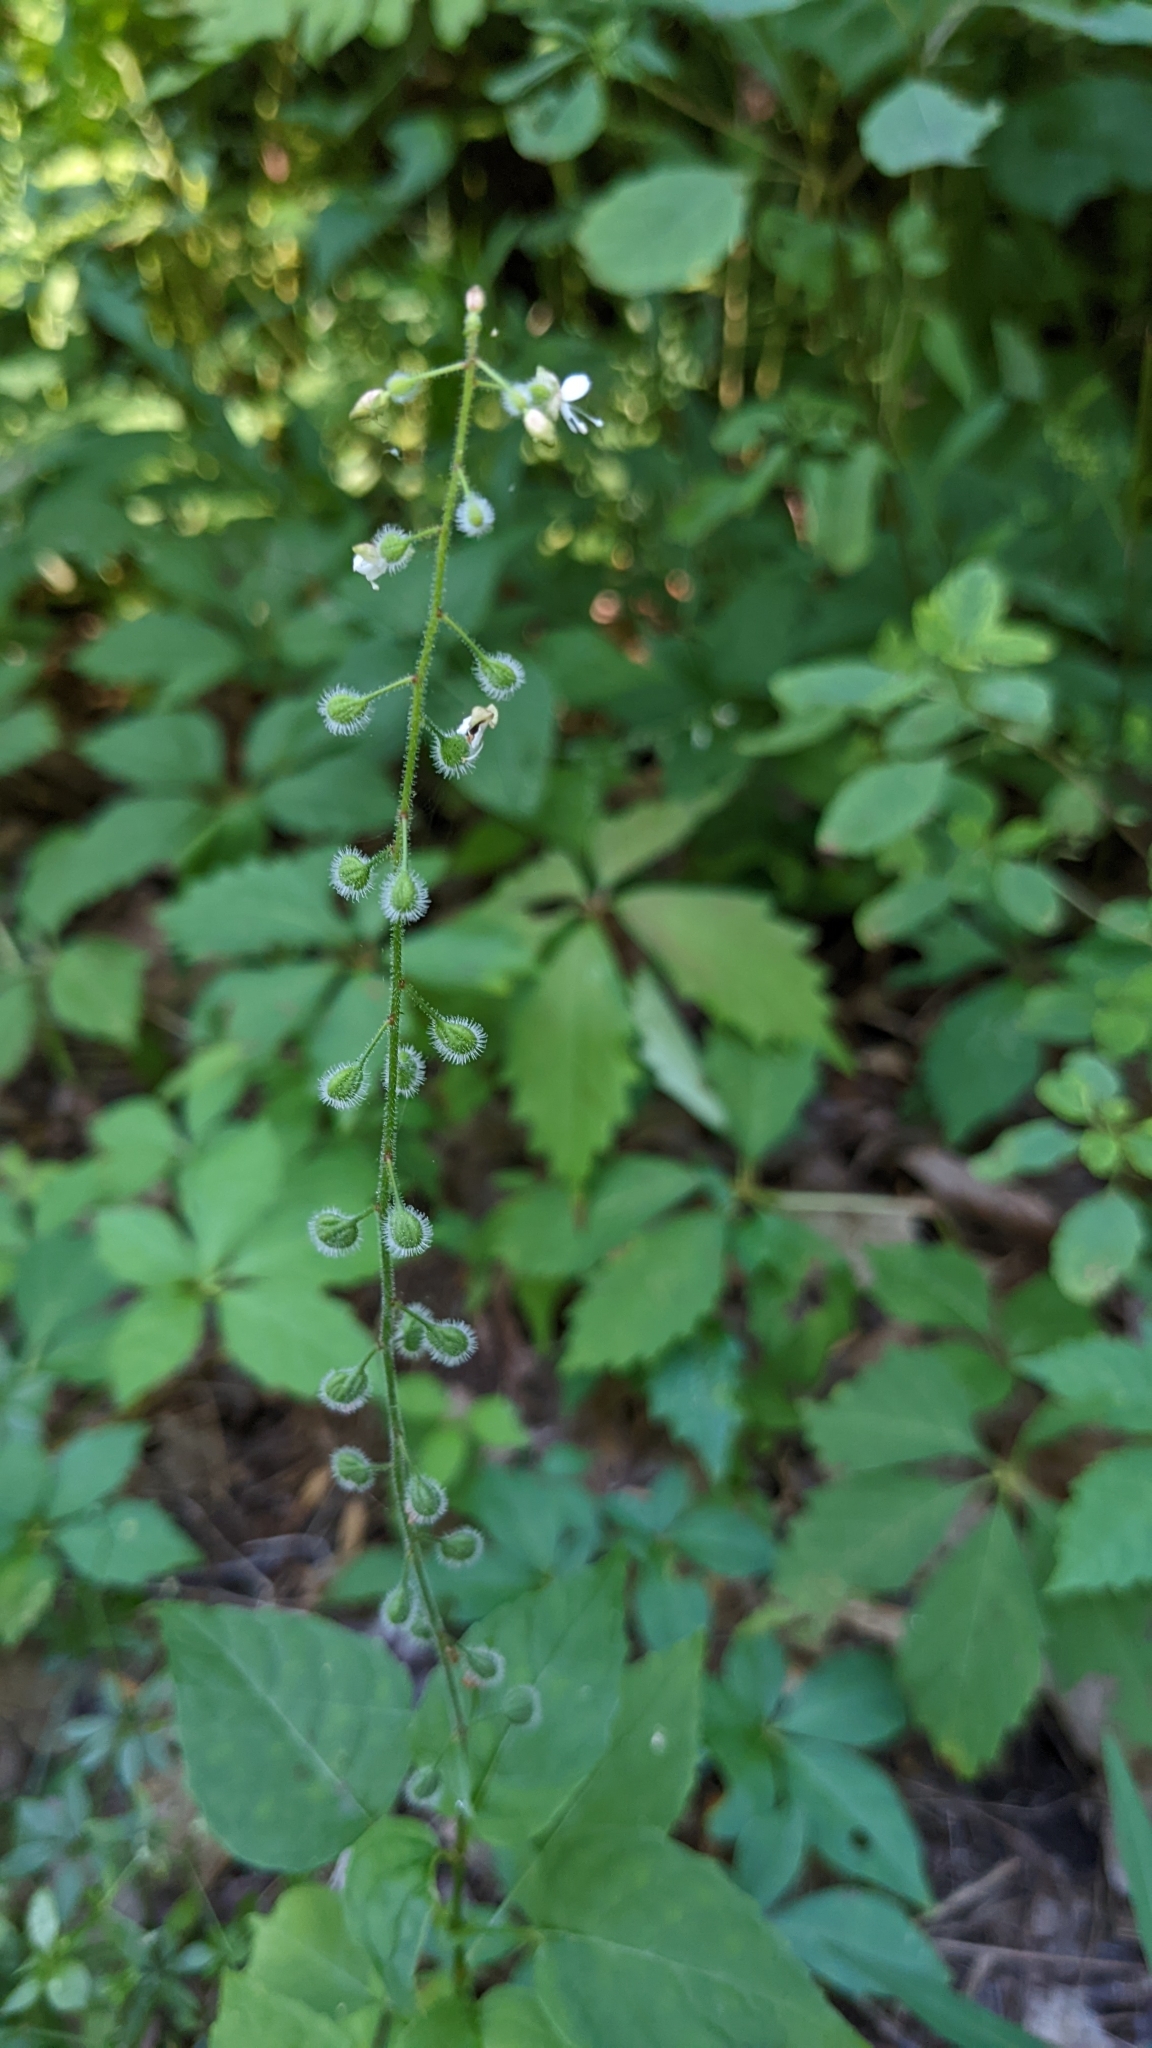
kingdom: Plantae
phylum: Tracheophyta
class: Magnoliopsida
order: Myrtales
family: Onagraceae
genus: Circaea
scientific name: Circaea canadensis
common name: Broad-leaved enchanter's nightshade
